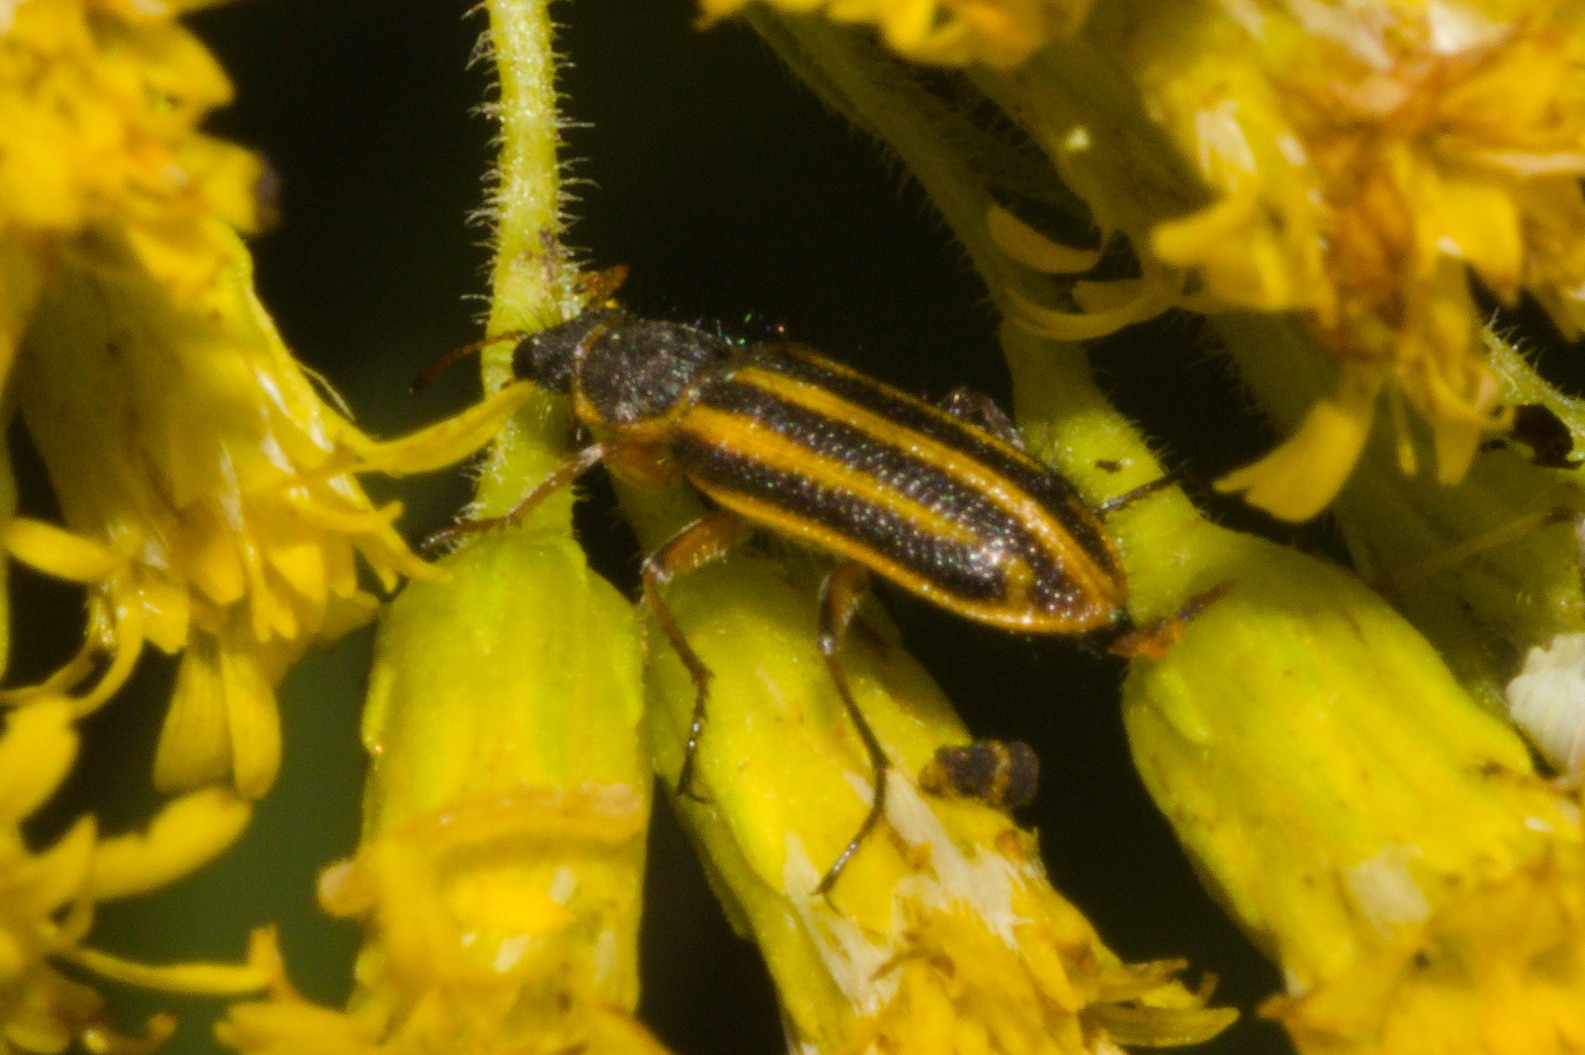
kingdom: Animalia
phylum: Arthropoda
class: Insecta
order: Coleoptera
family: Melyridae
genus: Astylus
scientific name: Astylus
